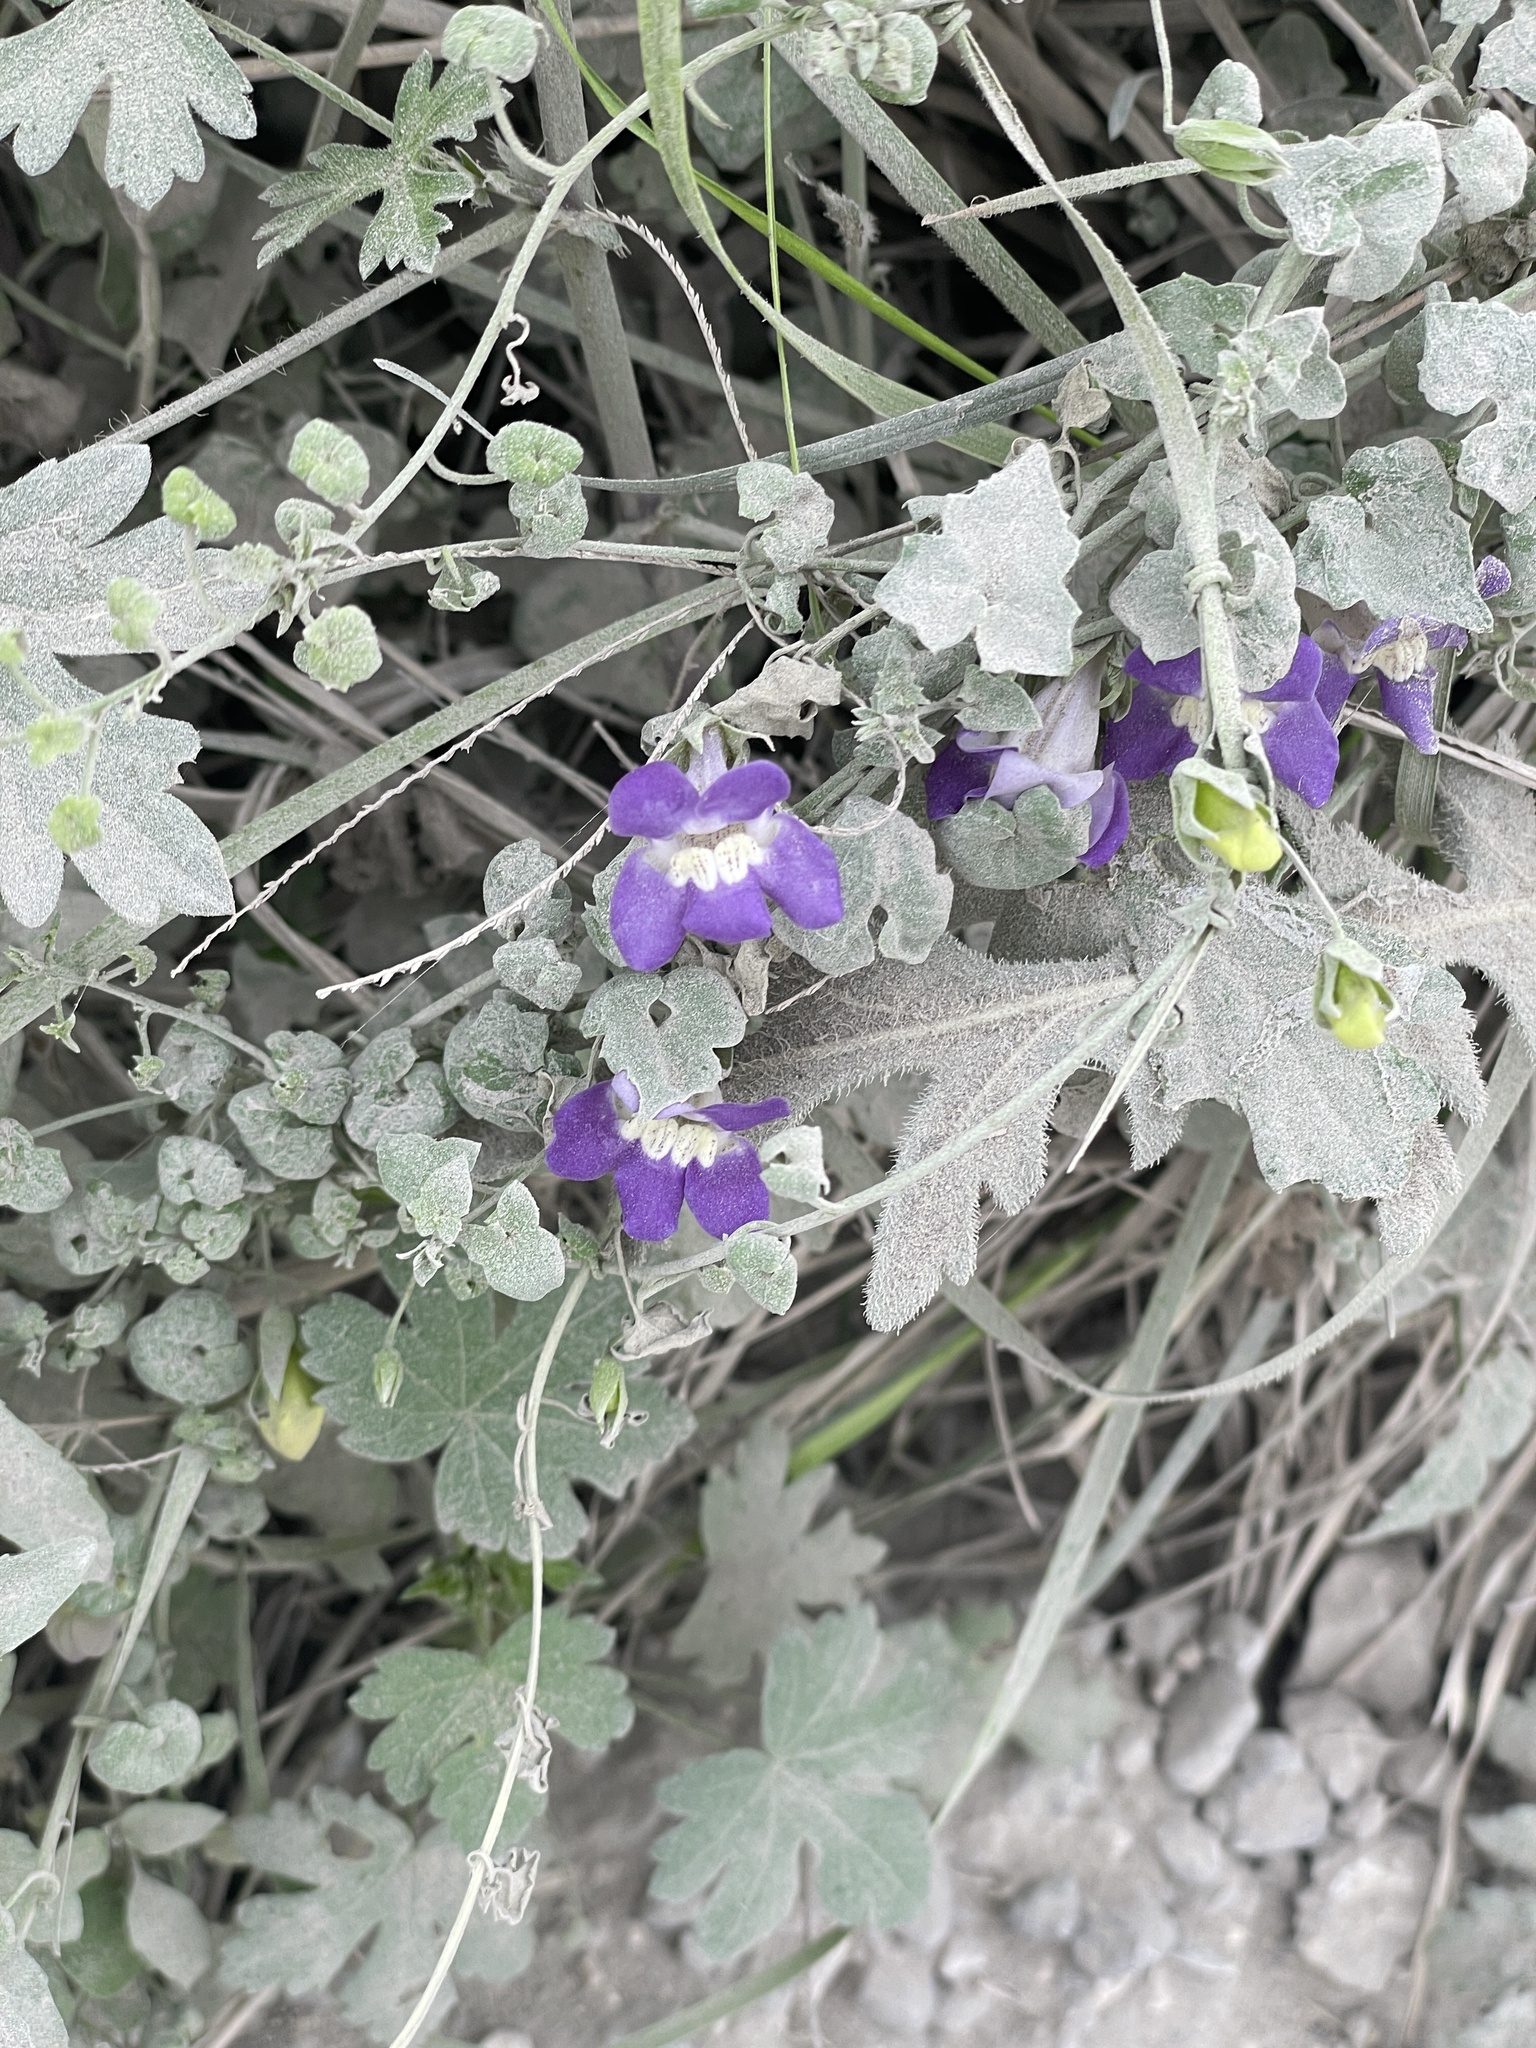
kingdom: Plantae
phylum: Tracheophyta
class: Magnoliopsida
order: Lamiales
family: Plantaginaceae
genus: Maurandella
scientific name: Maurandella antirrhiniflora
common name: Violet twining-snapdragon
